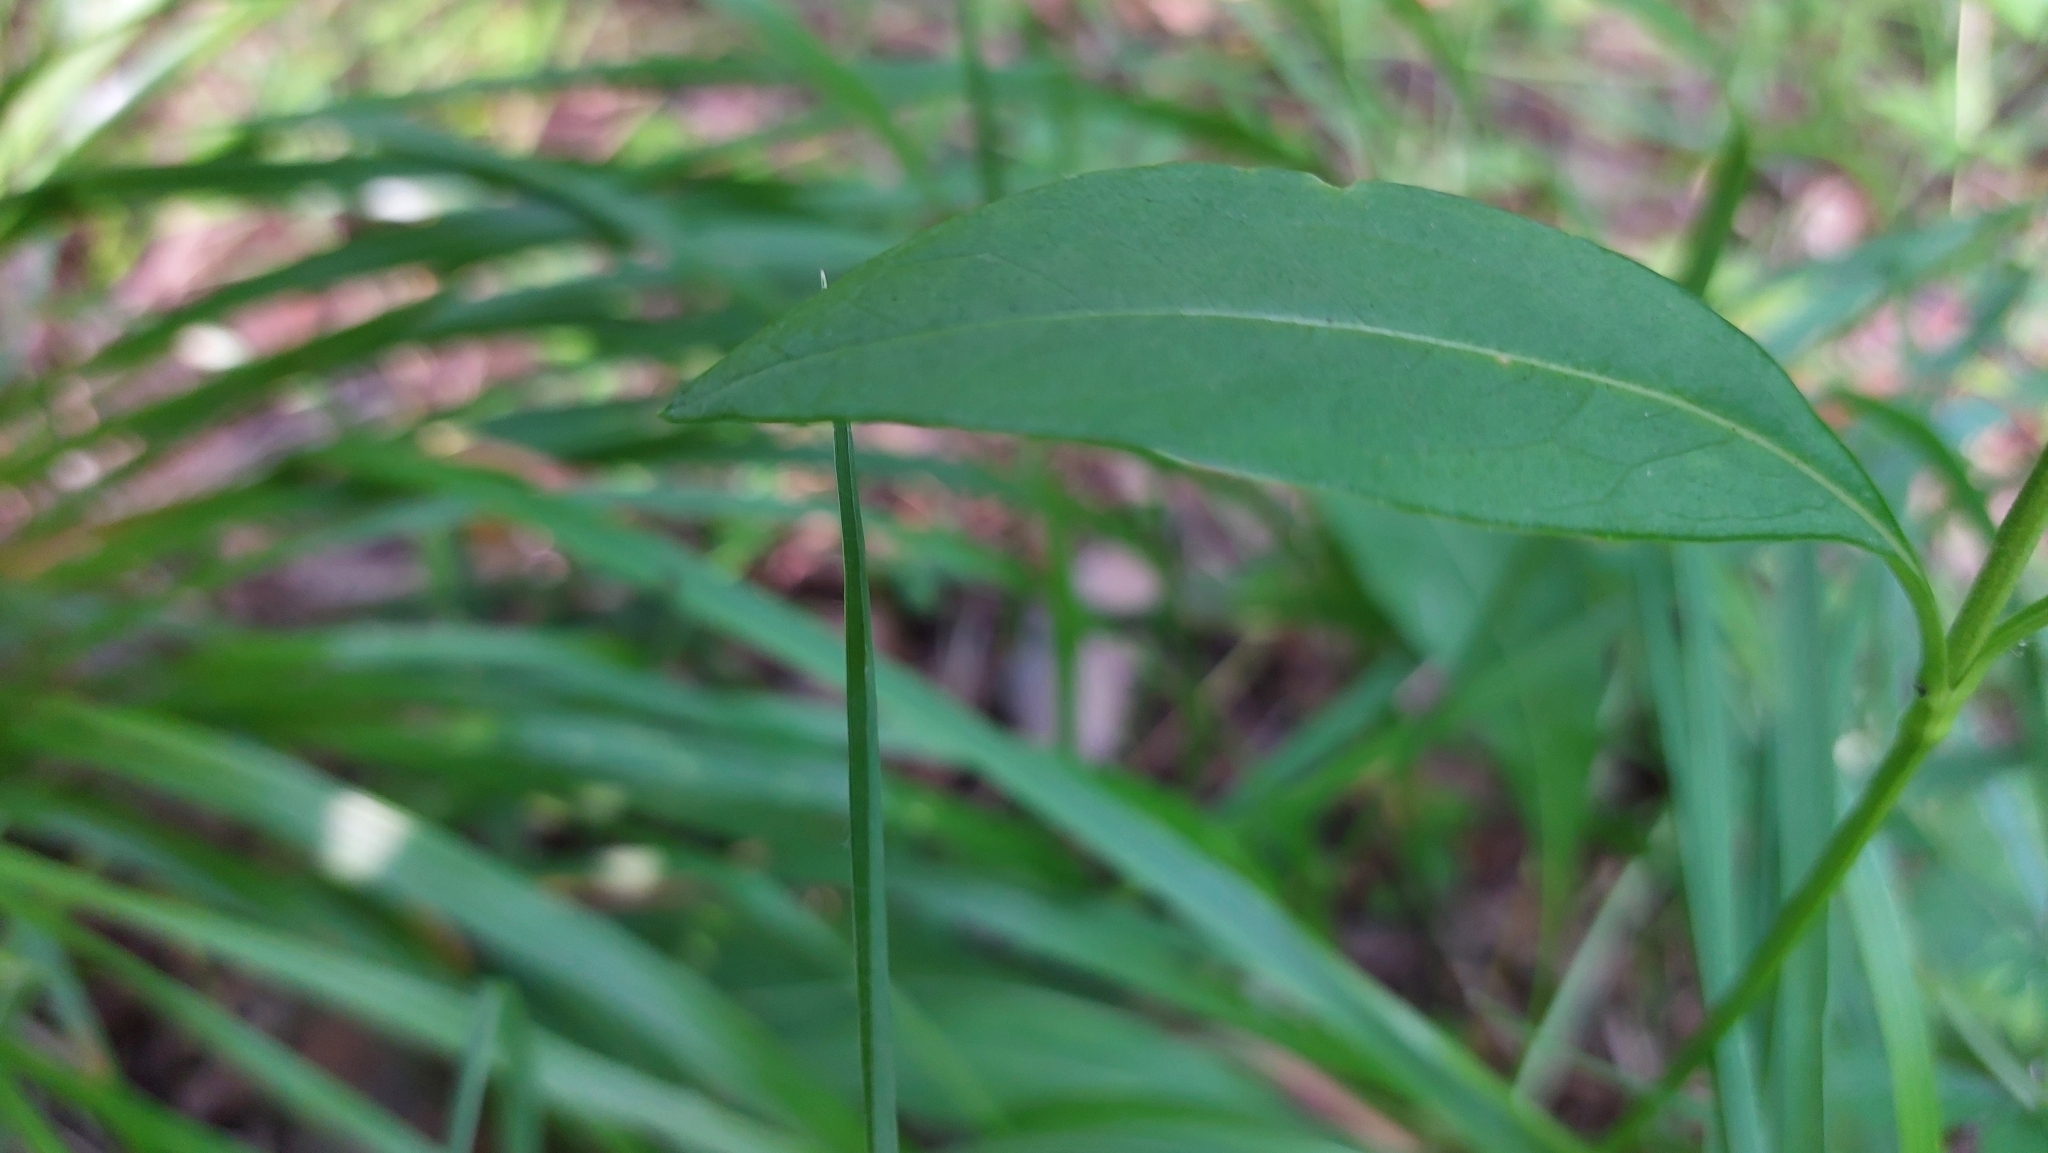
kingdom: Plantae
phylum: Tracheophyta
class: Magnoliopsida
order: Dipsacales
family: Caprifoliaceae
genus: Succisa
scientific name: Succisa pratensis
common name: Devil's-bit
